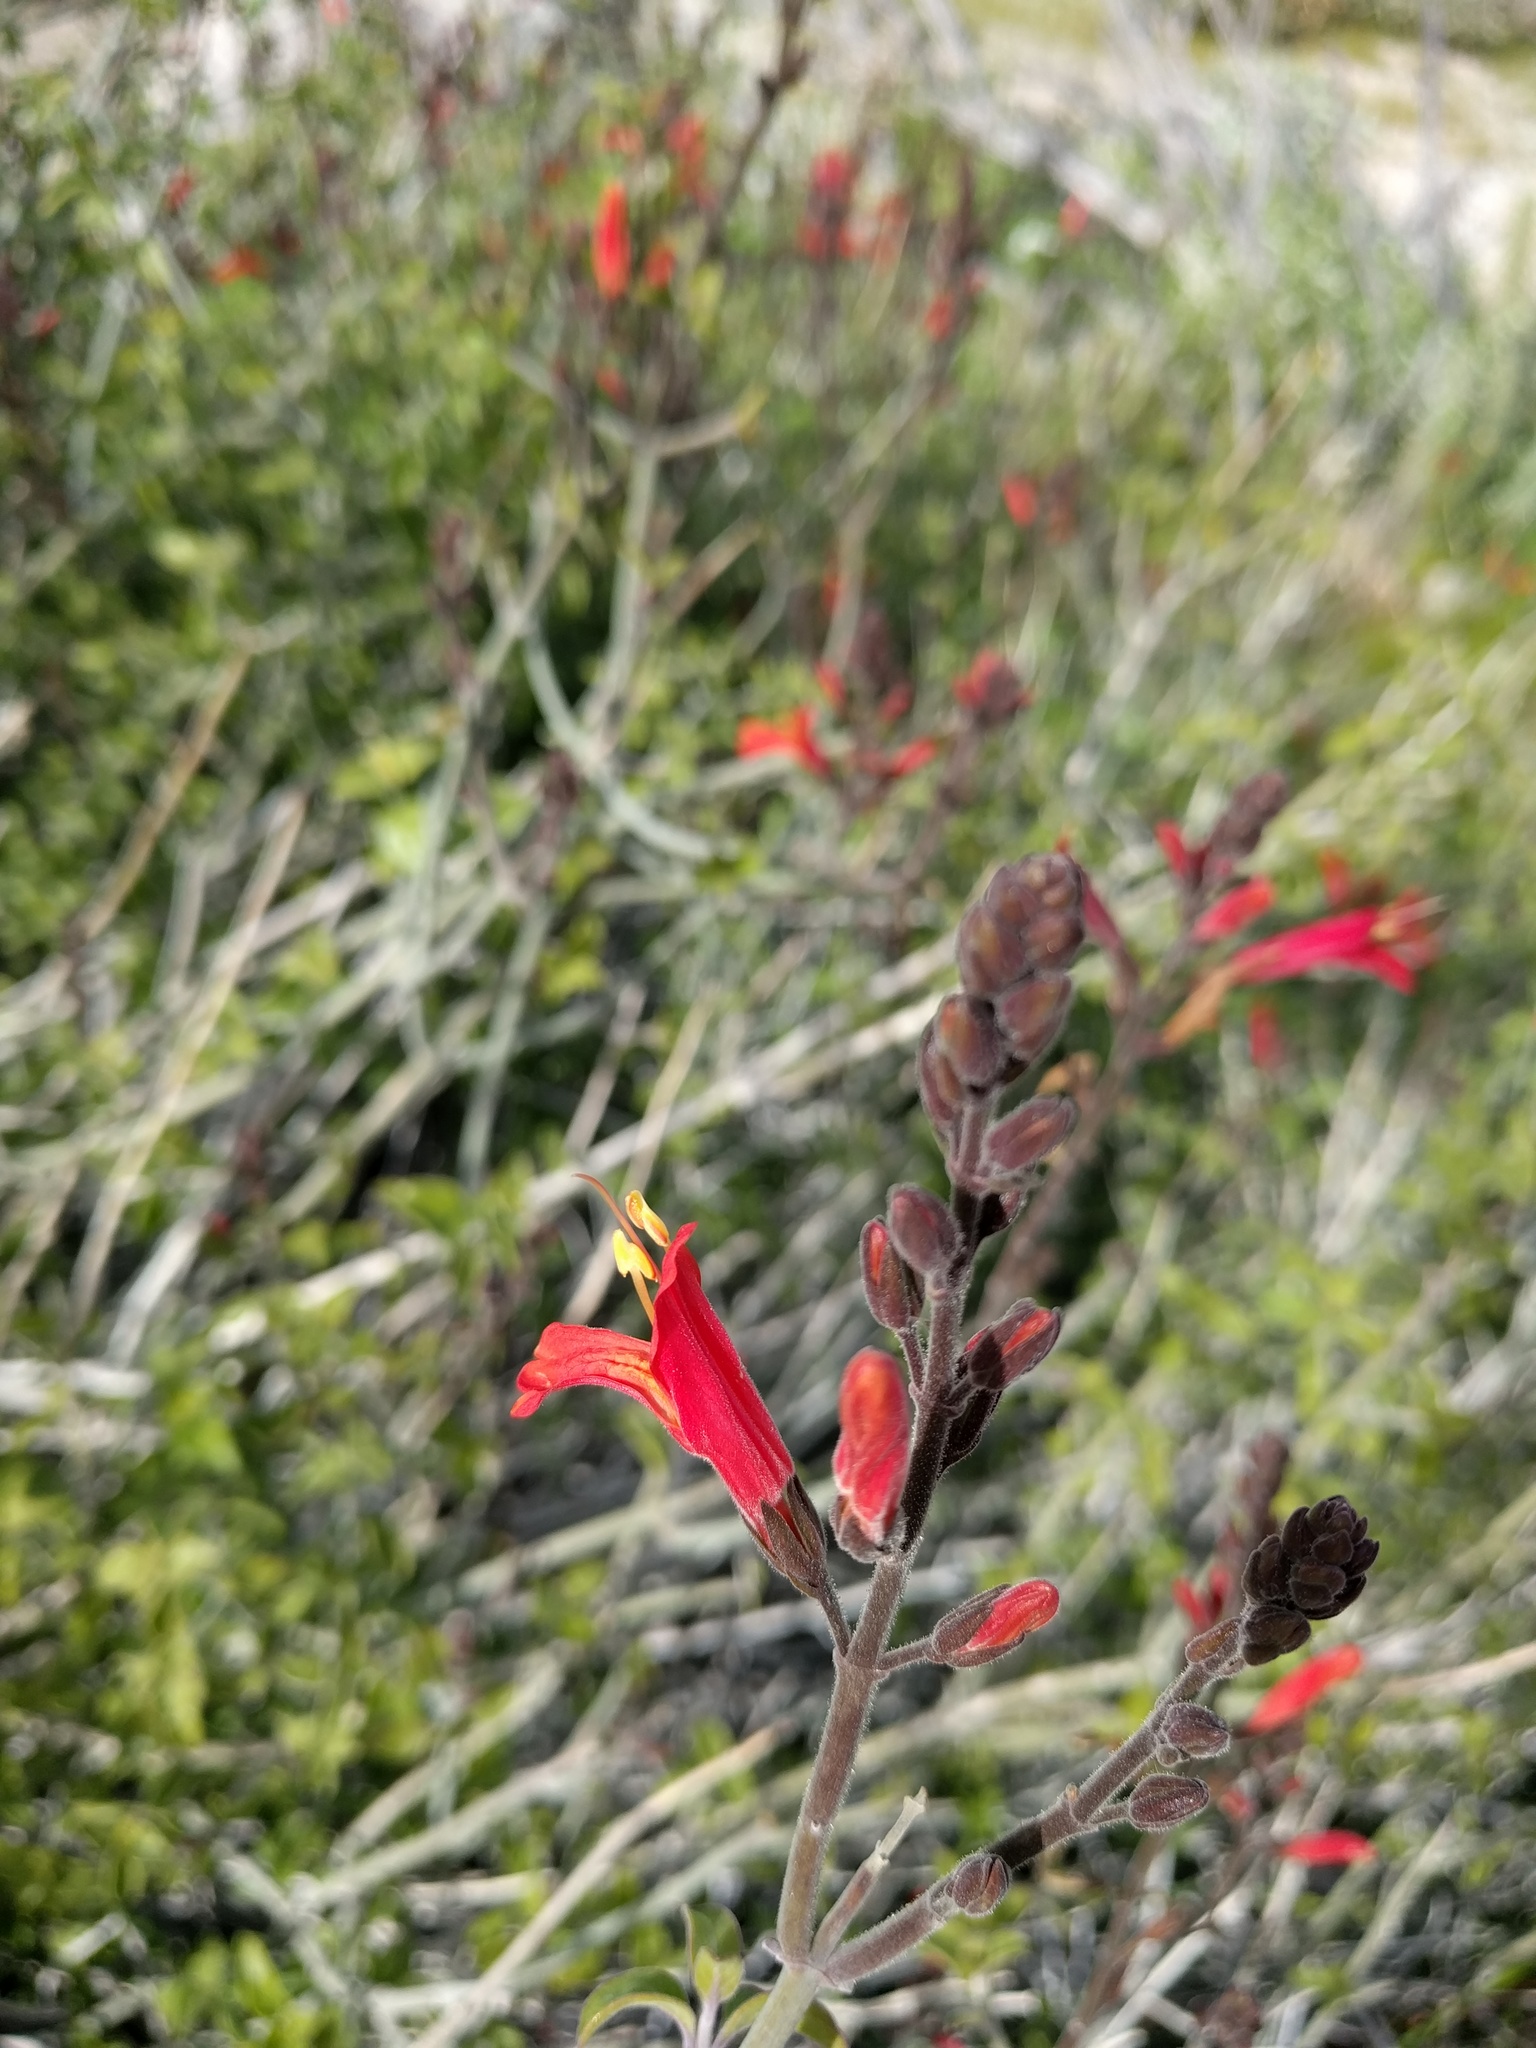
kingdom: Plantae
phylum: Tracheophyta
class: Magnoliopsida
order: Lamiales
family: Acanthaceae
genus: Justicia
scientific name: Justicia californica
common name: Chuparosa-honeysuckle
